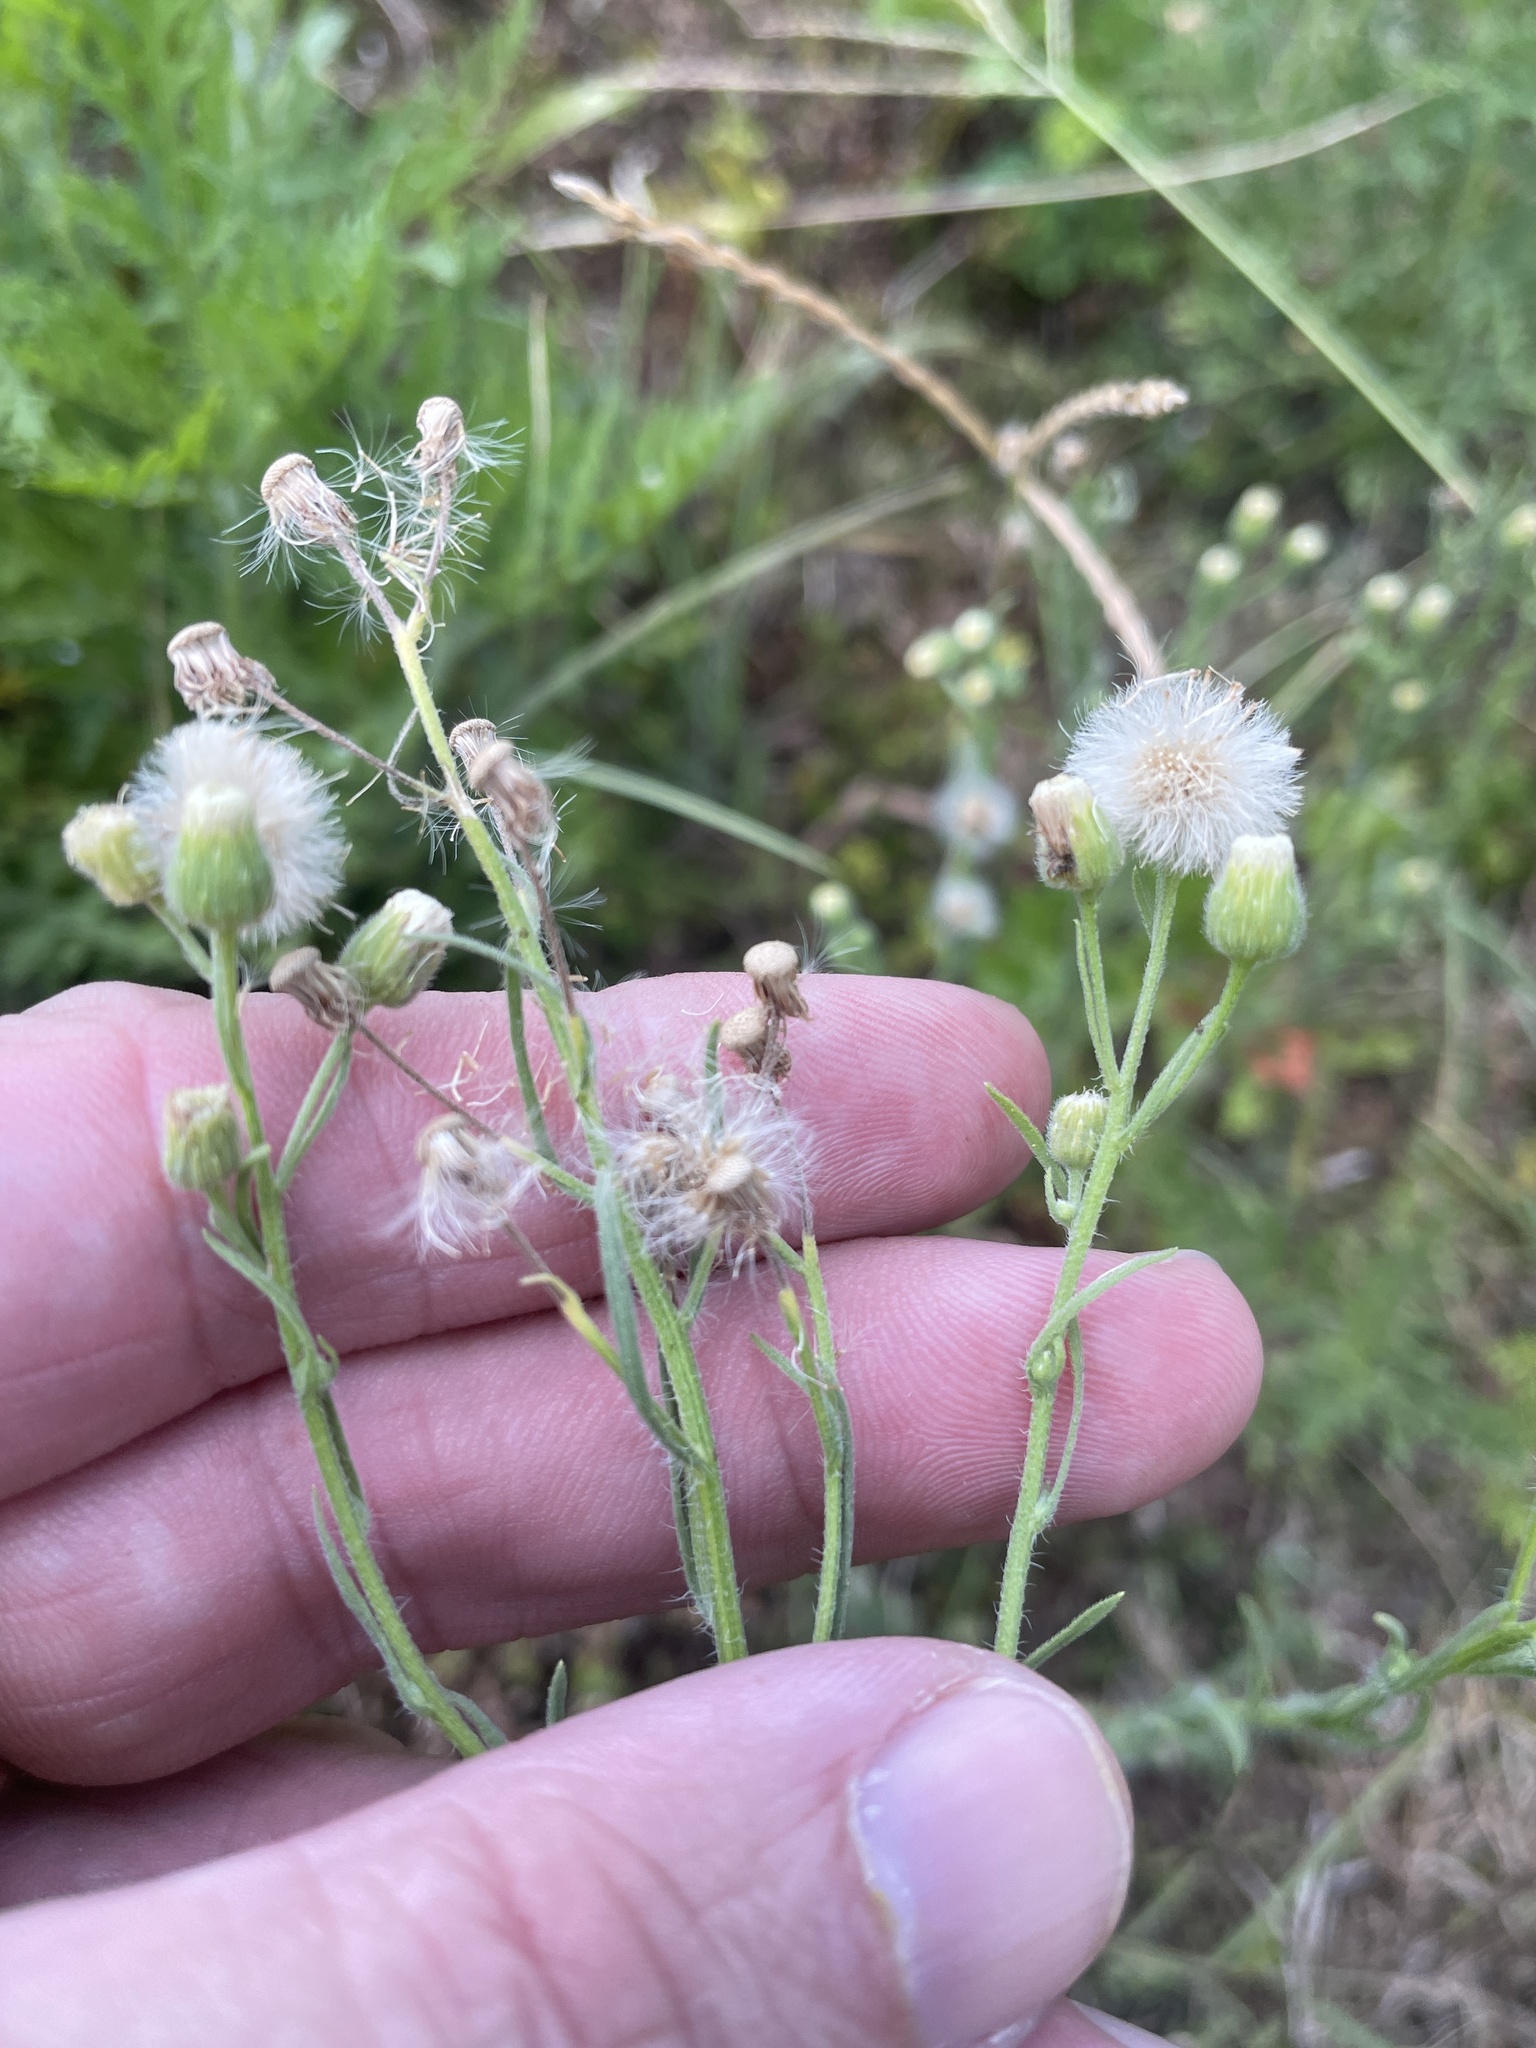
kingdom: Plantae
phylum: Tracheophyta
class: Magnoliopsida
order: Asterales
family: Asteraceae
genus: Erigeron
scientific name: Erigeron bonariensis
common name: Argentine fleabane
